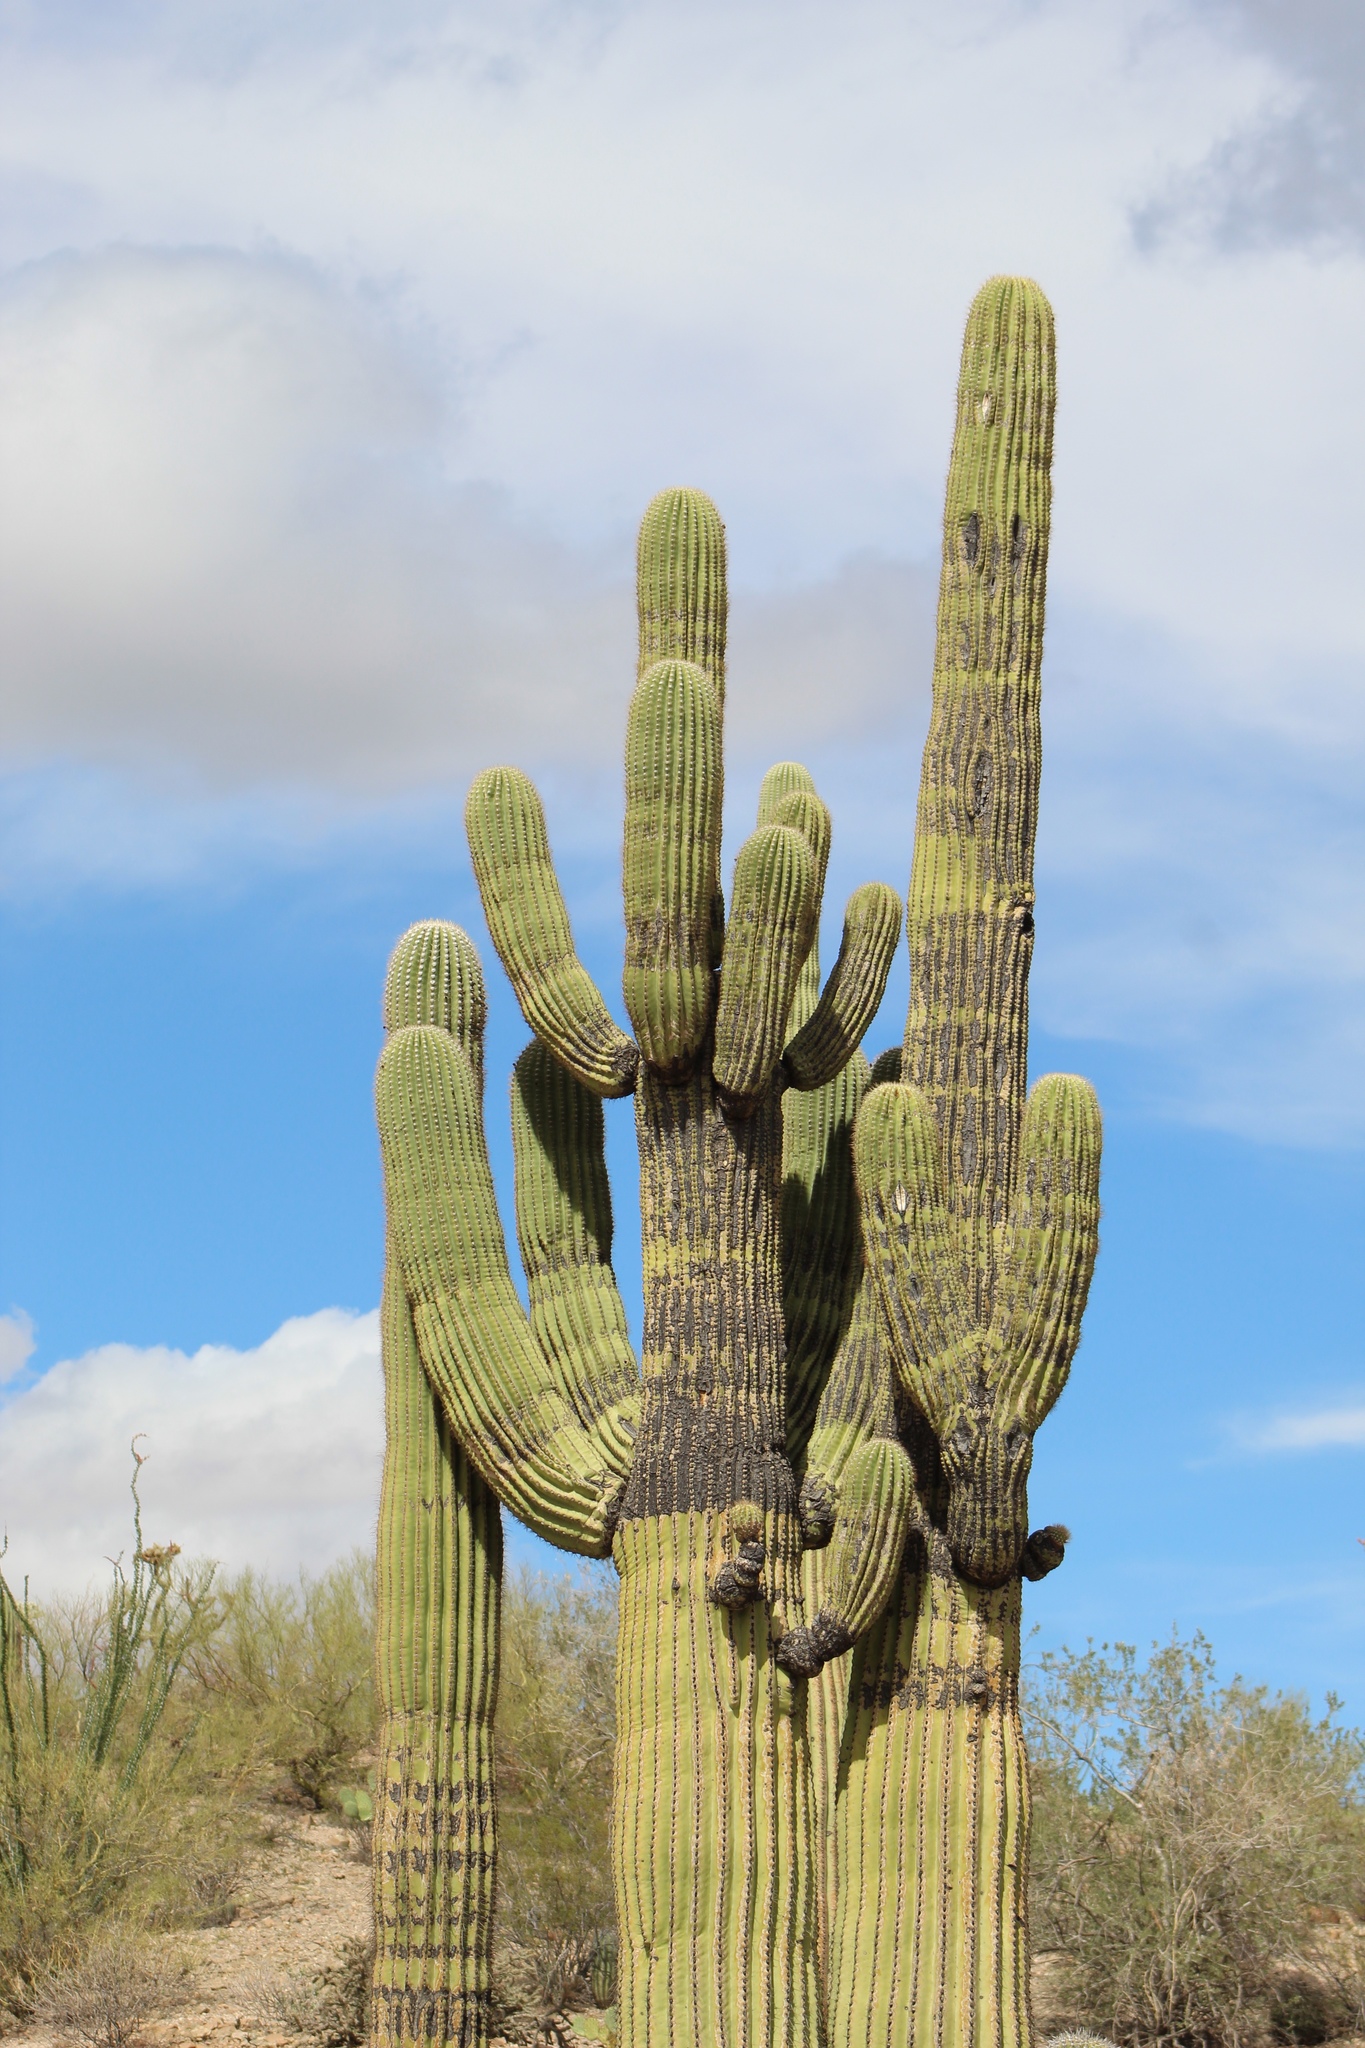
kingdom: Plantae
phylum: Tracheophyta
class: Magnoliopsida
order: Caryophyllales
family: Cactaceae
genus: Carnegiea
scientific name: Carnegiea gigantea
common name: Saguaro
